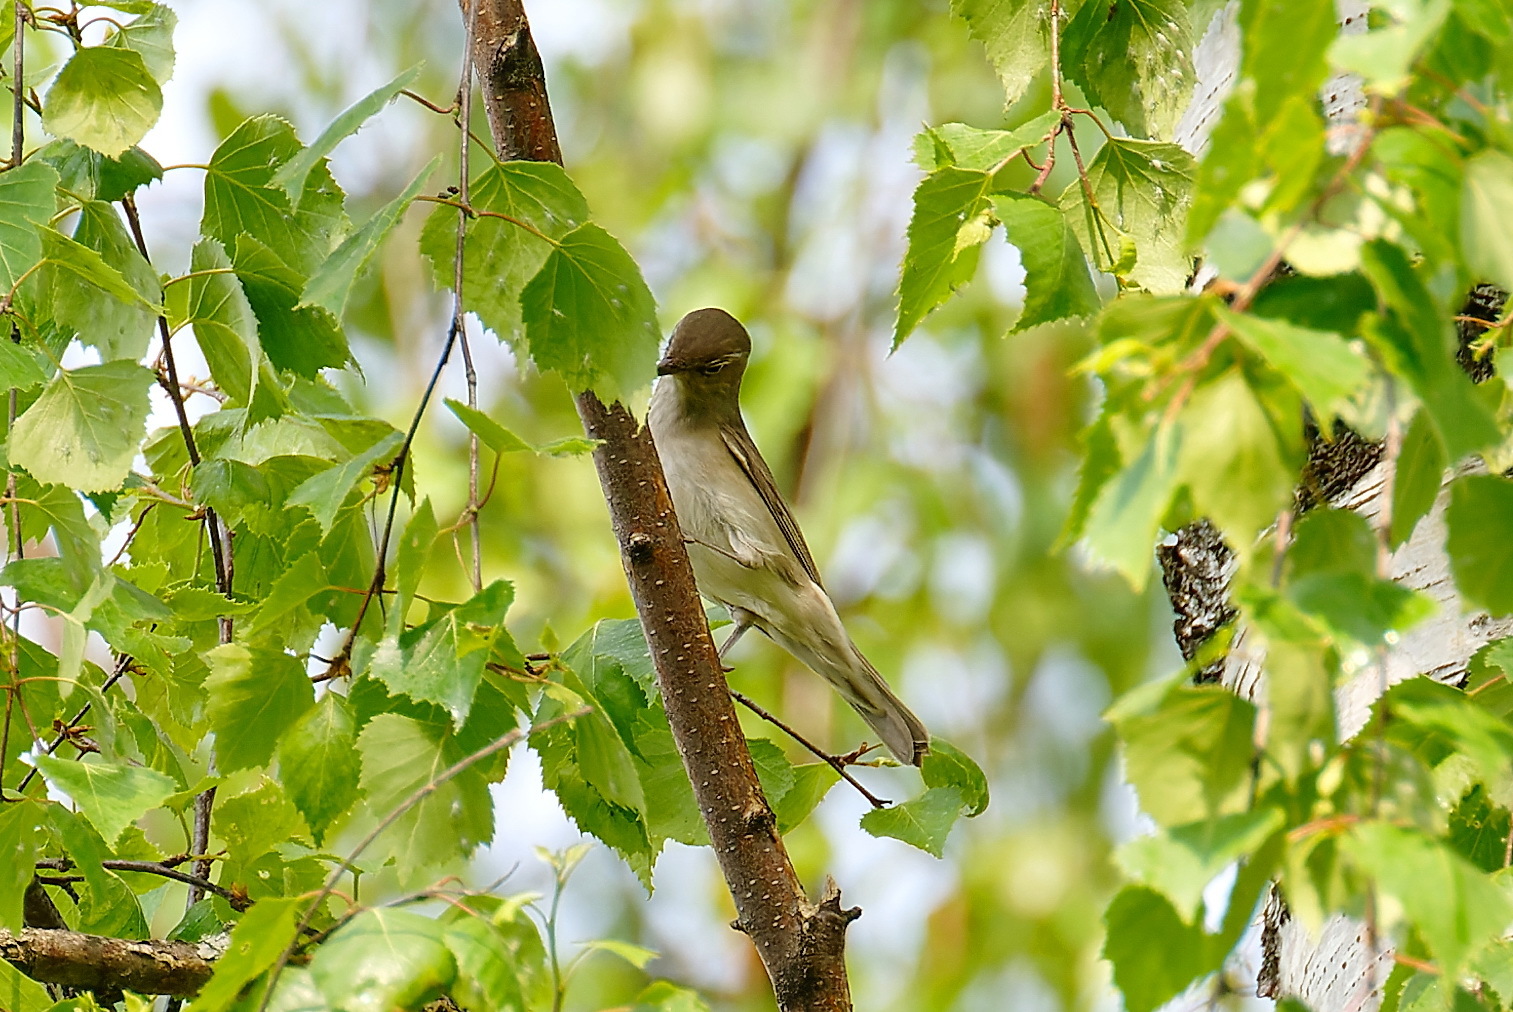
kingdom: Animalia
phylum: Chordata
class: Aves
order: Passeriformes
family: Sylviidae
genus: Sylvia
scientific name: Sylvia borin
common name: Garden warbler
